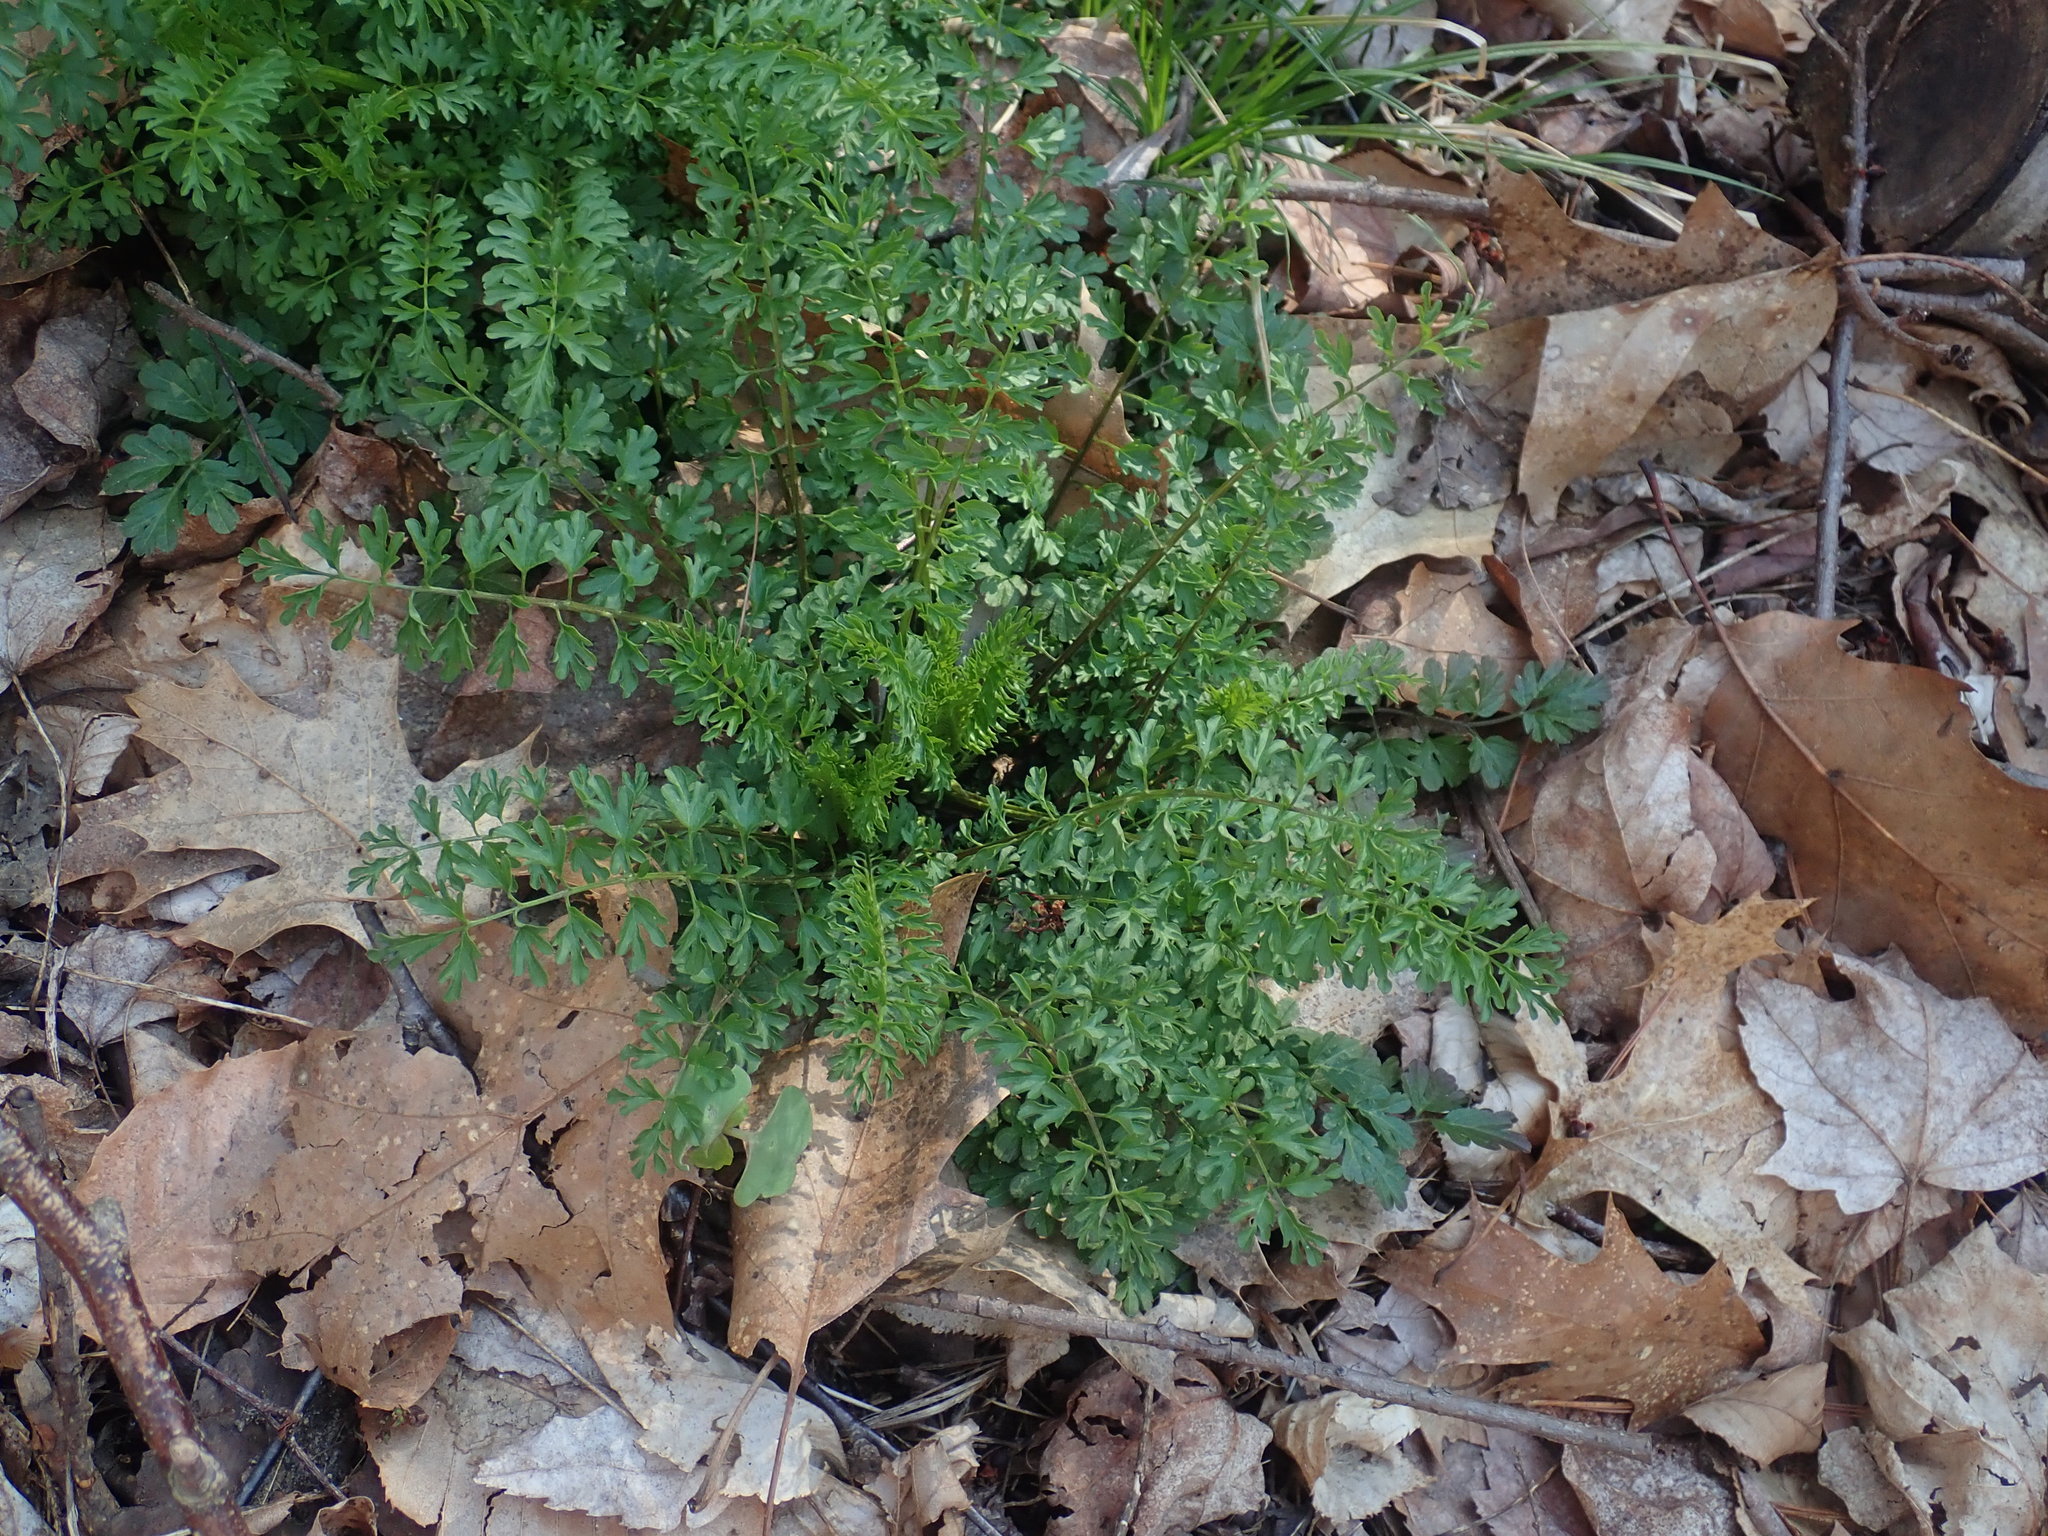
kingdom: Plantae
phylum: Tracheophyta
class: Magnoliopsida
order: Brassicales
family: Brassicaceae
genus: Cardamine
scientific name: Cardamine impatiens
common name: Narrow-leaved bitter-cress
